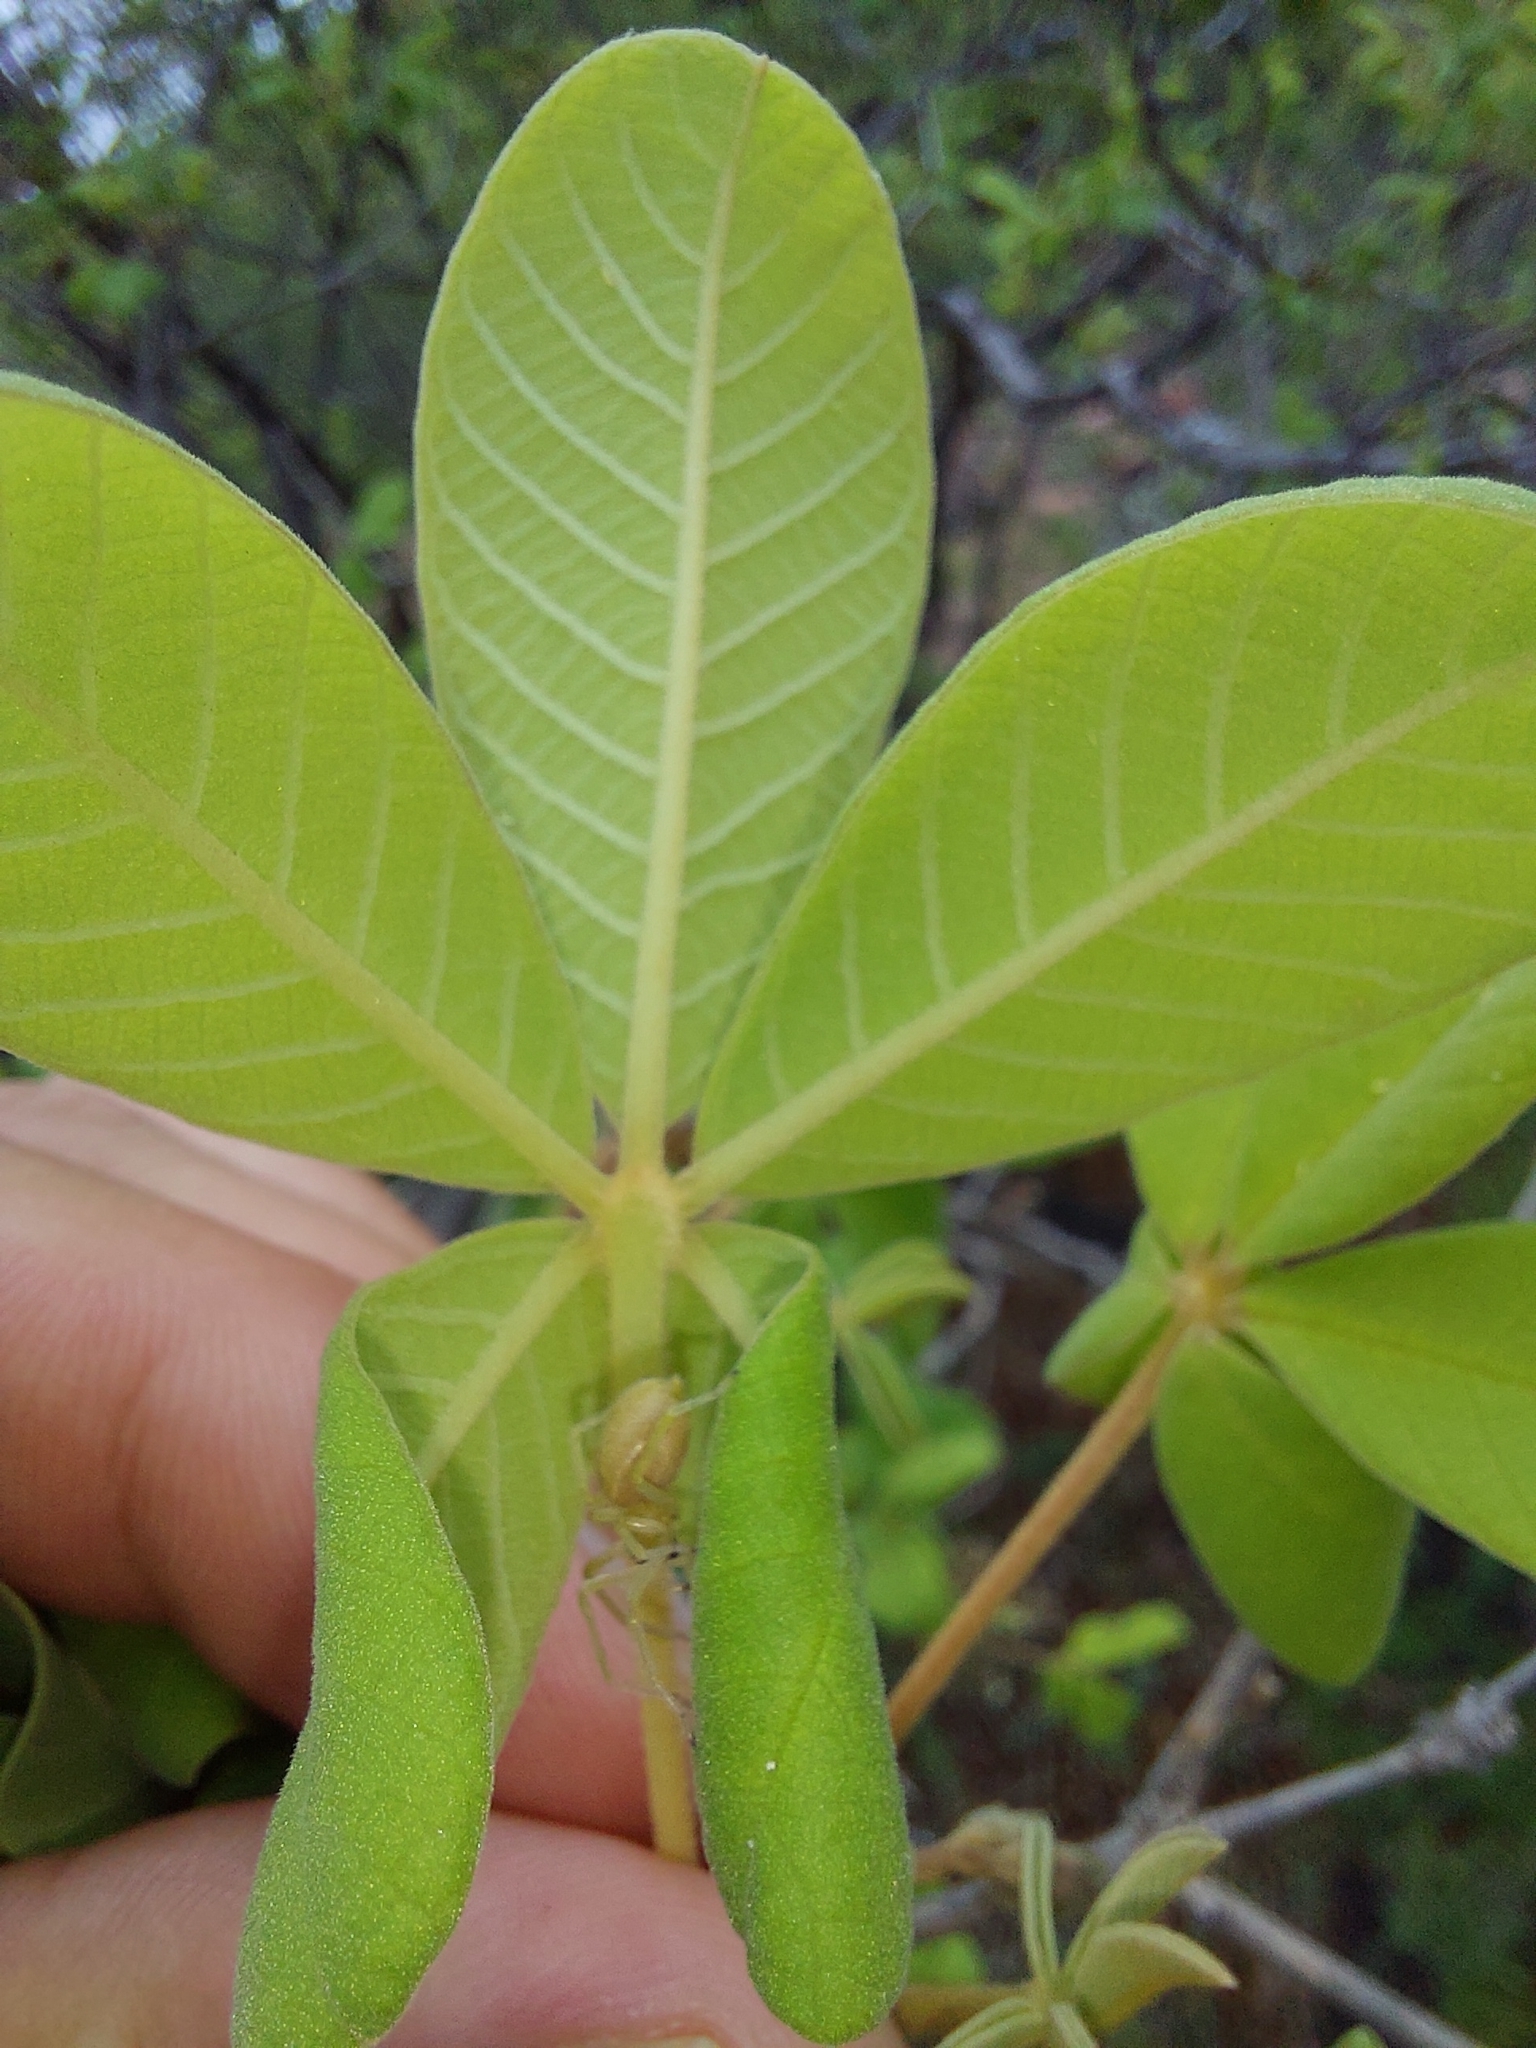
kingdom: Plantae
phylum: Tracheophyta
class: Magnoliopsida
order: Lamiales
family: Lamiaceae
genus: Vitex
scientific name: Vitex pooara
